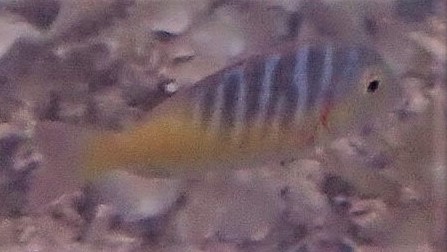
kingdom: Animalia
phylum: Chordata
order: Perciformes
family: Lethrinidae
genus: Lethrinus
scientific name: Lethrinus mahsena
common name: Sky emperor
